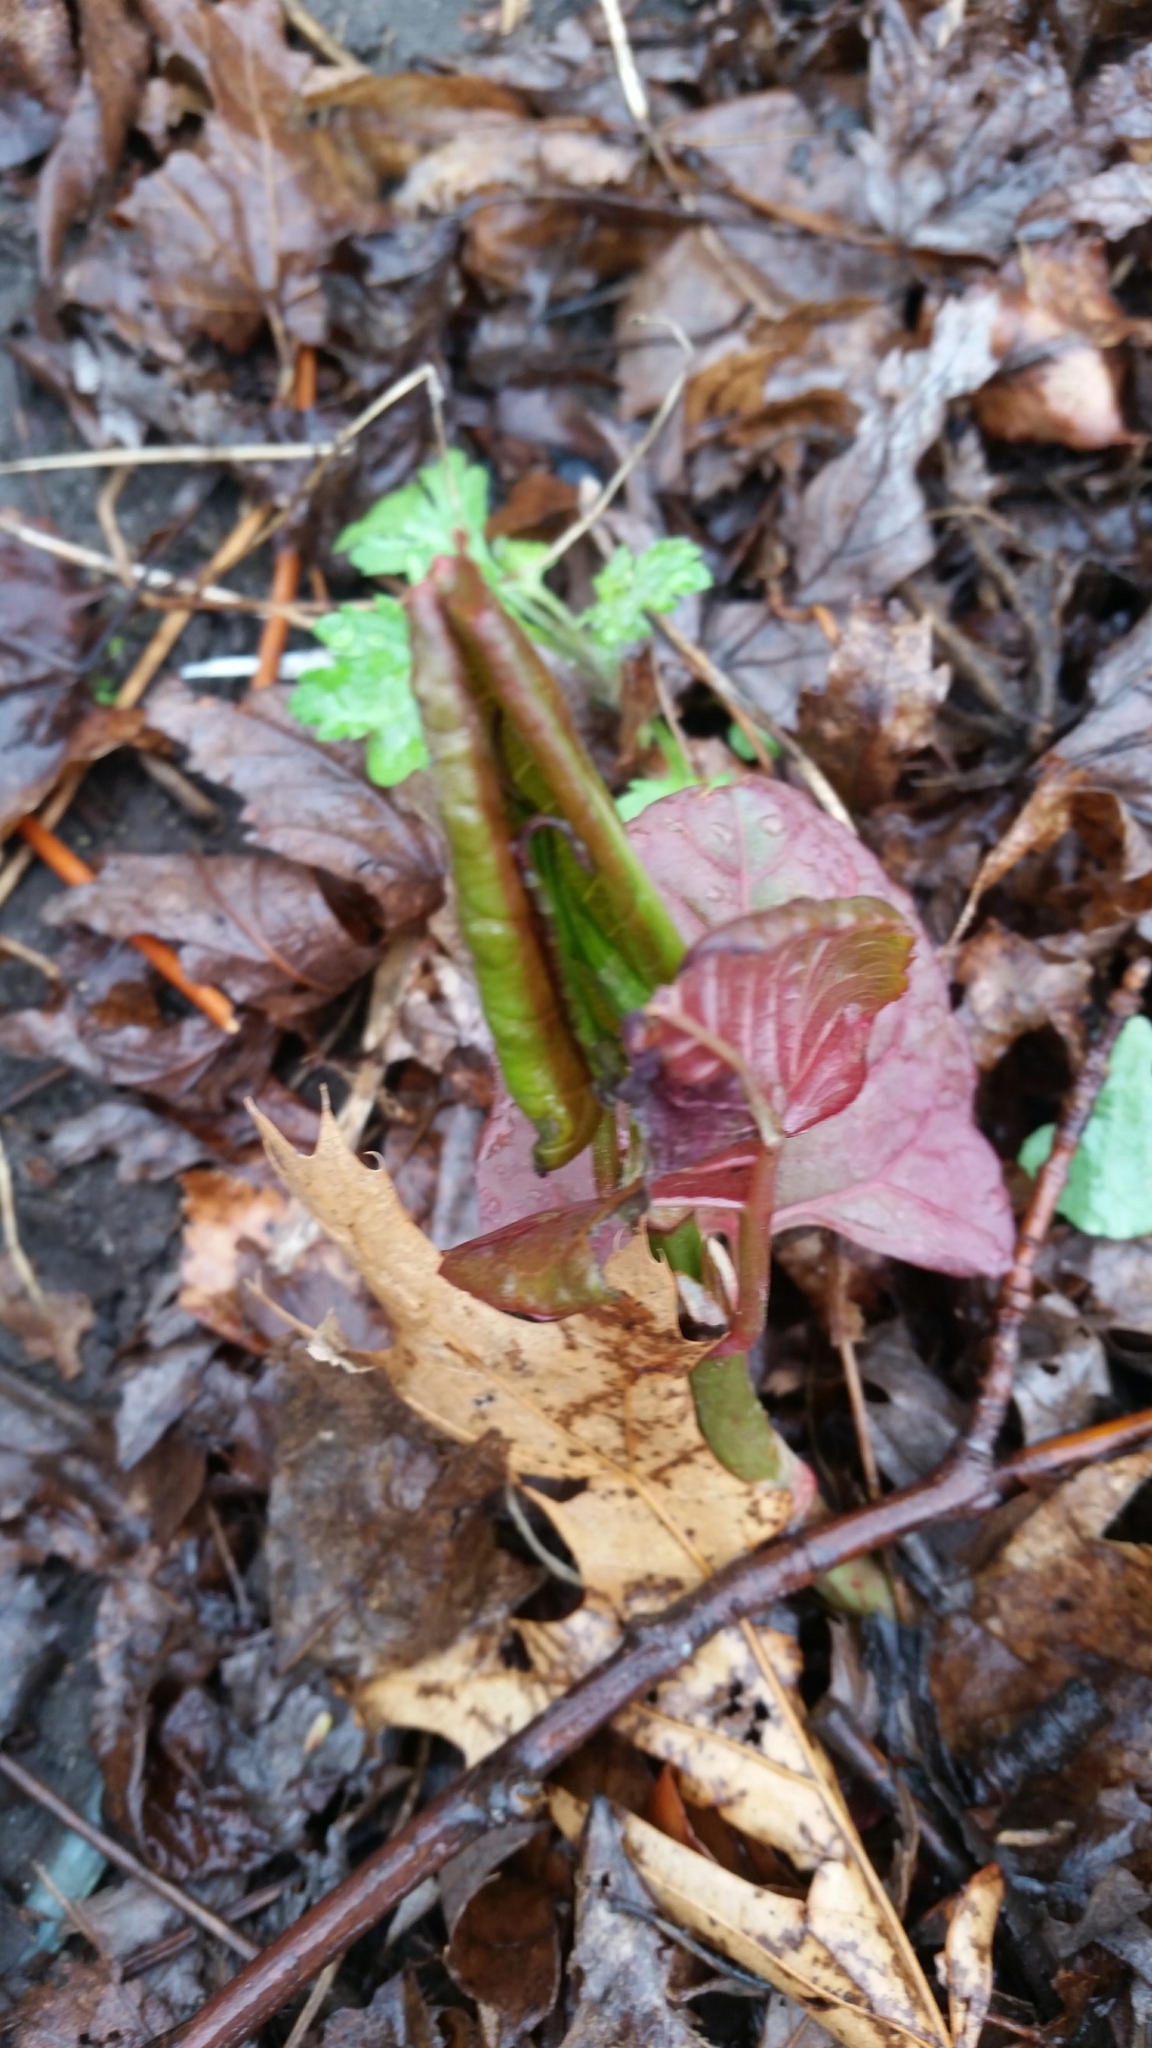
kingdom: Plantae
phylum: Tracheophyta
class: Magnoliopsida
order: Caryophyllales
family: Polygonaceae
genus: Reynoutria
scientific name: Reynoutria japonica
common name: Japanese knotweed
